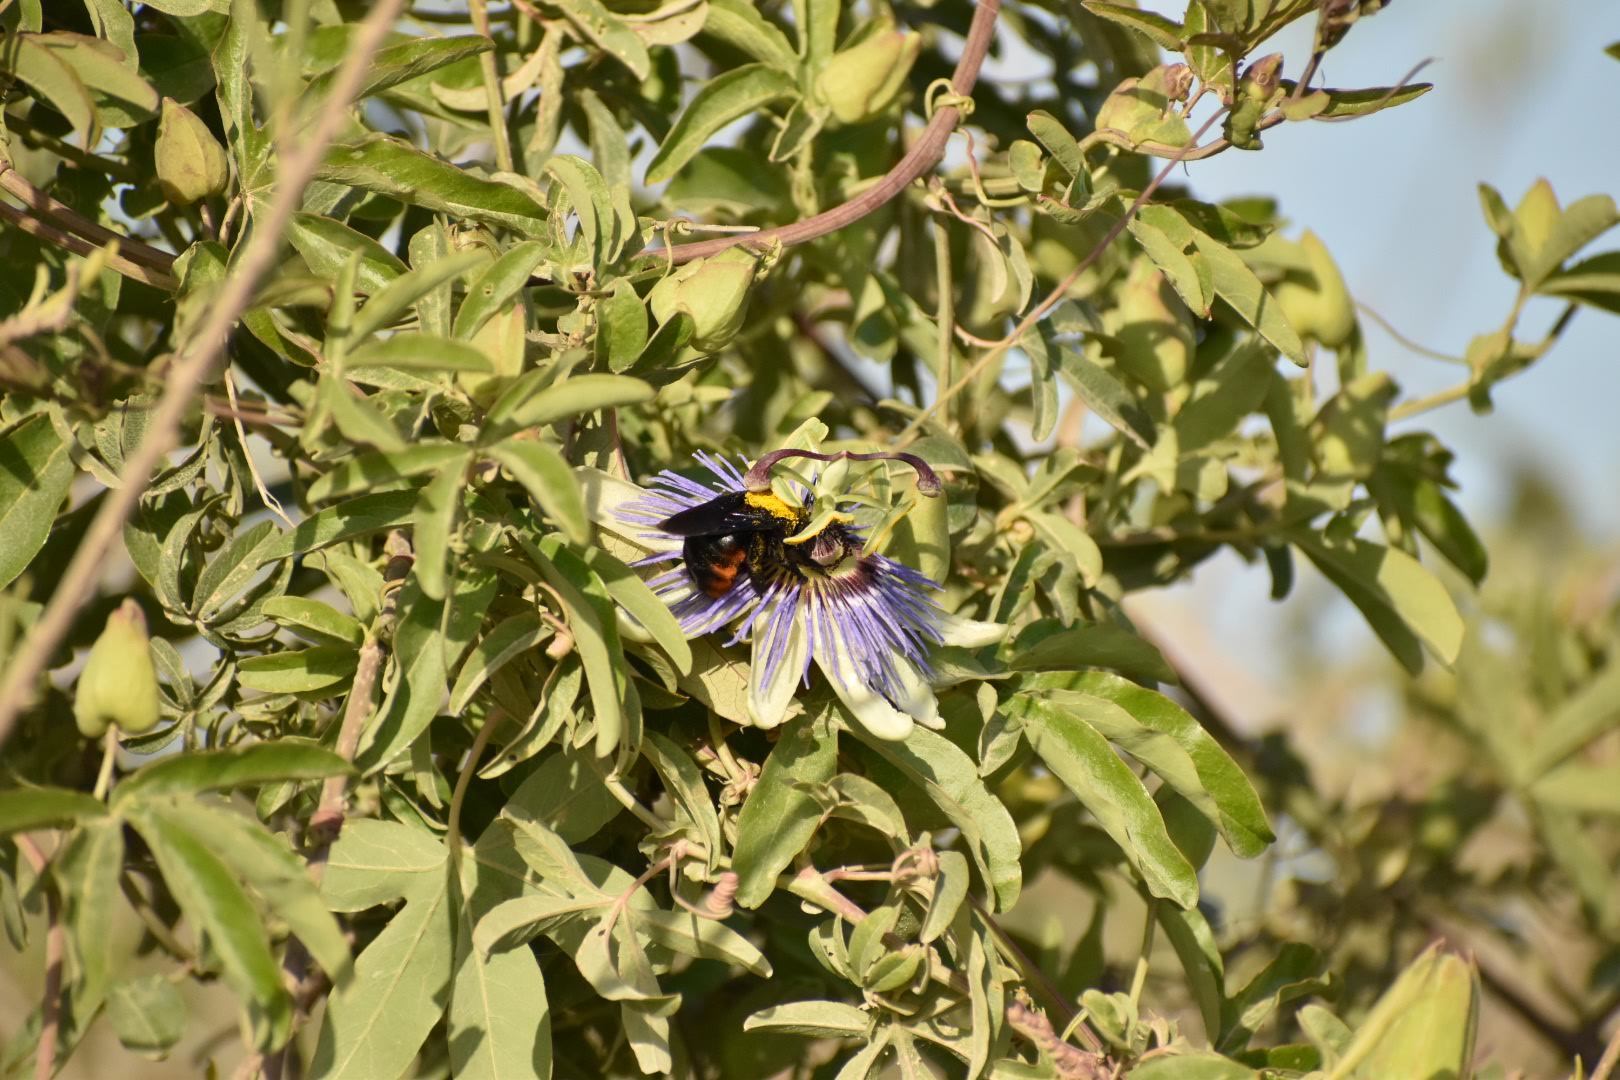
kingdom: Animalia
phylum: Arthropoda
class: Insecta
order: Hymenoptera
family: Apidae
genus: Xylocopa
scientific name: Xylocopa augusti
